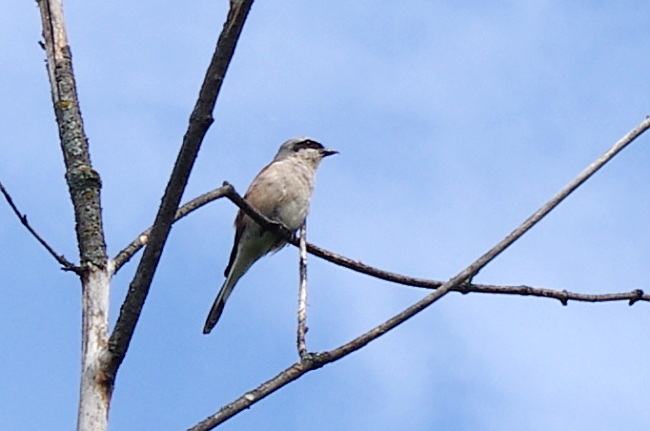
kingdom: Animalia
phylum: Chordata
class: Aves
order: Passeriformes
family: Laniidae
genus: Lanius
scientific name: Lanius collurio
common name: Red-backed shrike
